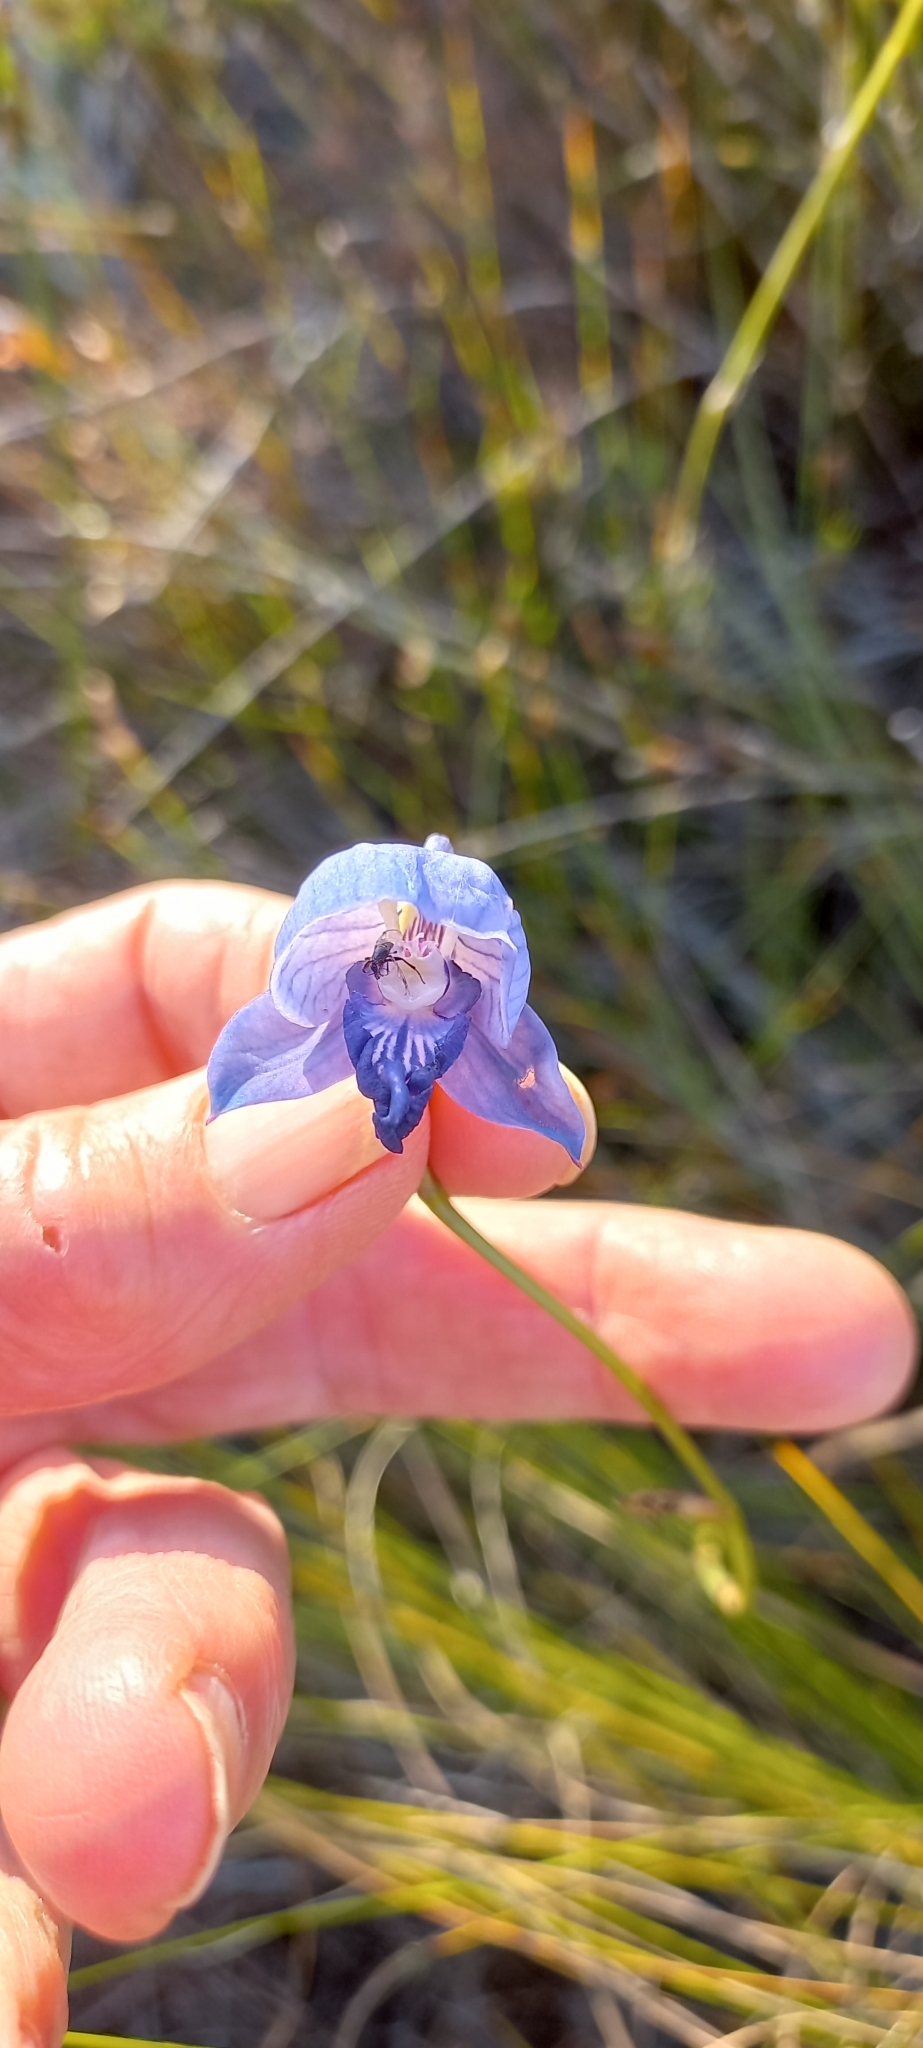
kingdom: Plantae
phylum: Tracheophyta
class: Liliopsida
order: Asparagales
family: Orchidaceae
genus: Disa
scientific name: Disa purpurascens
